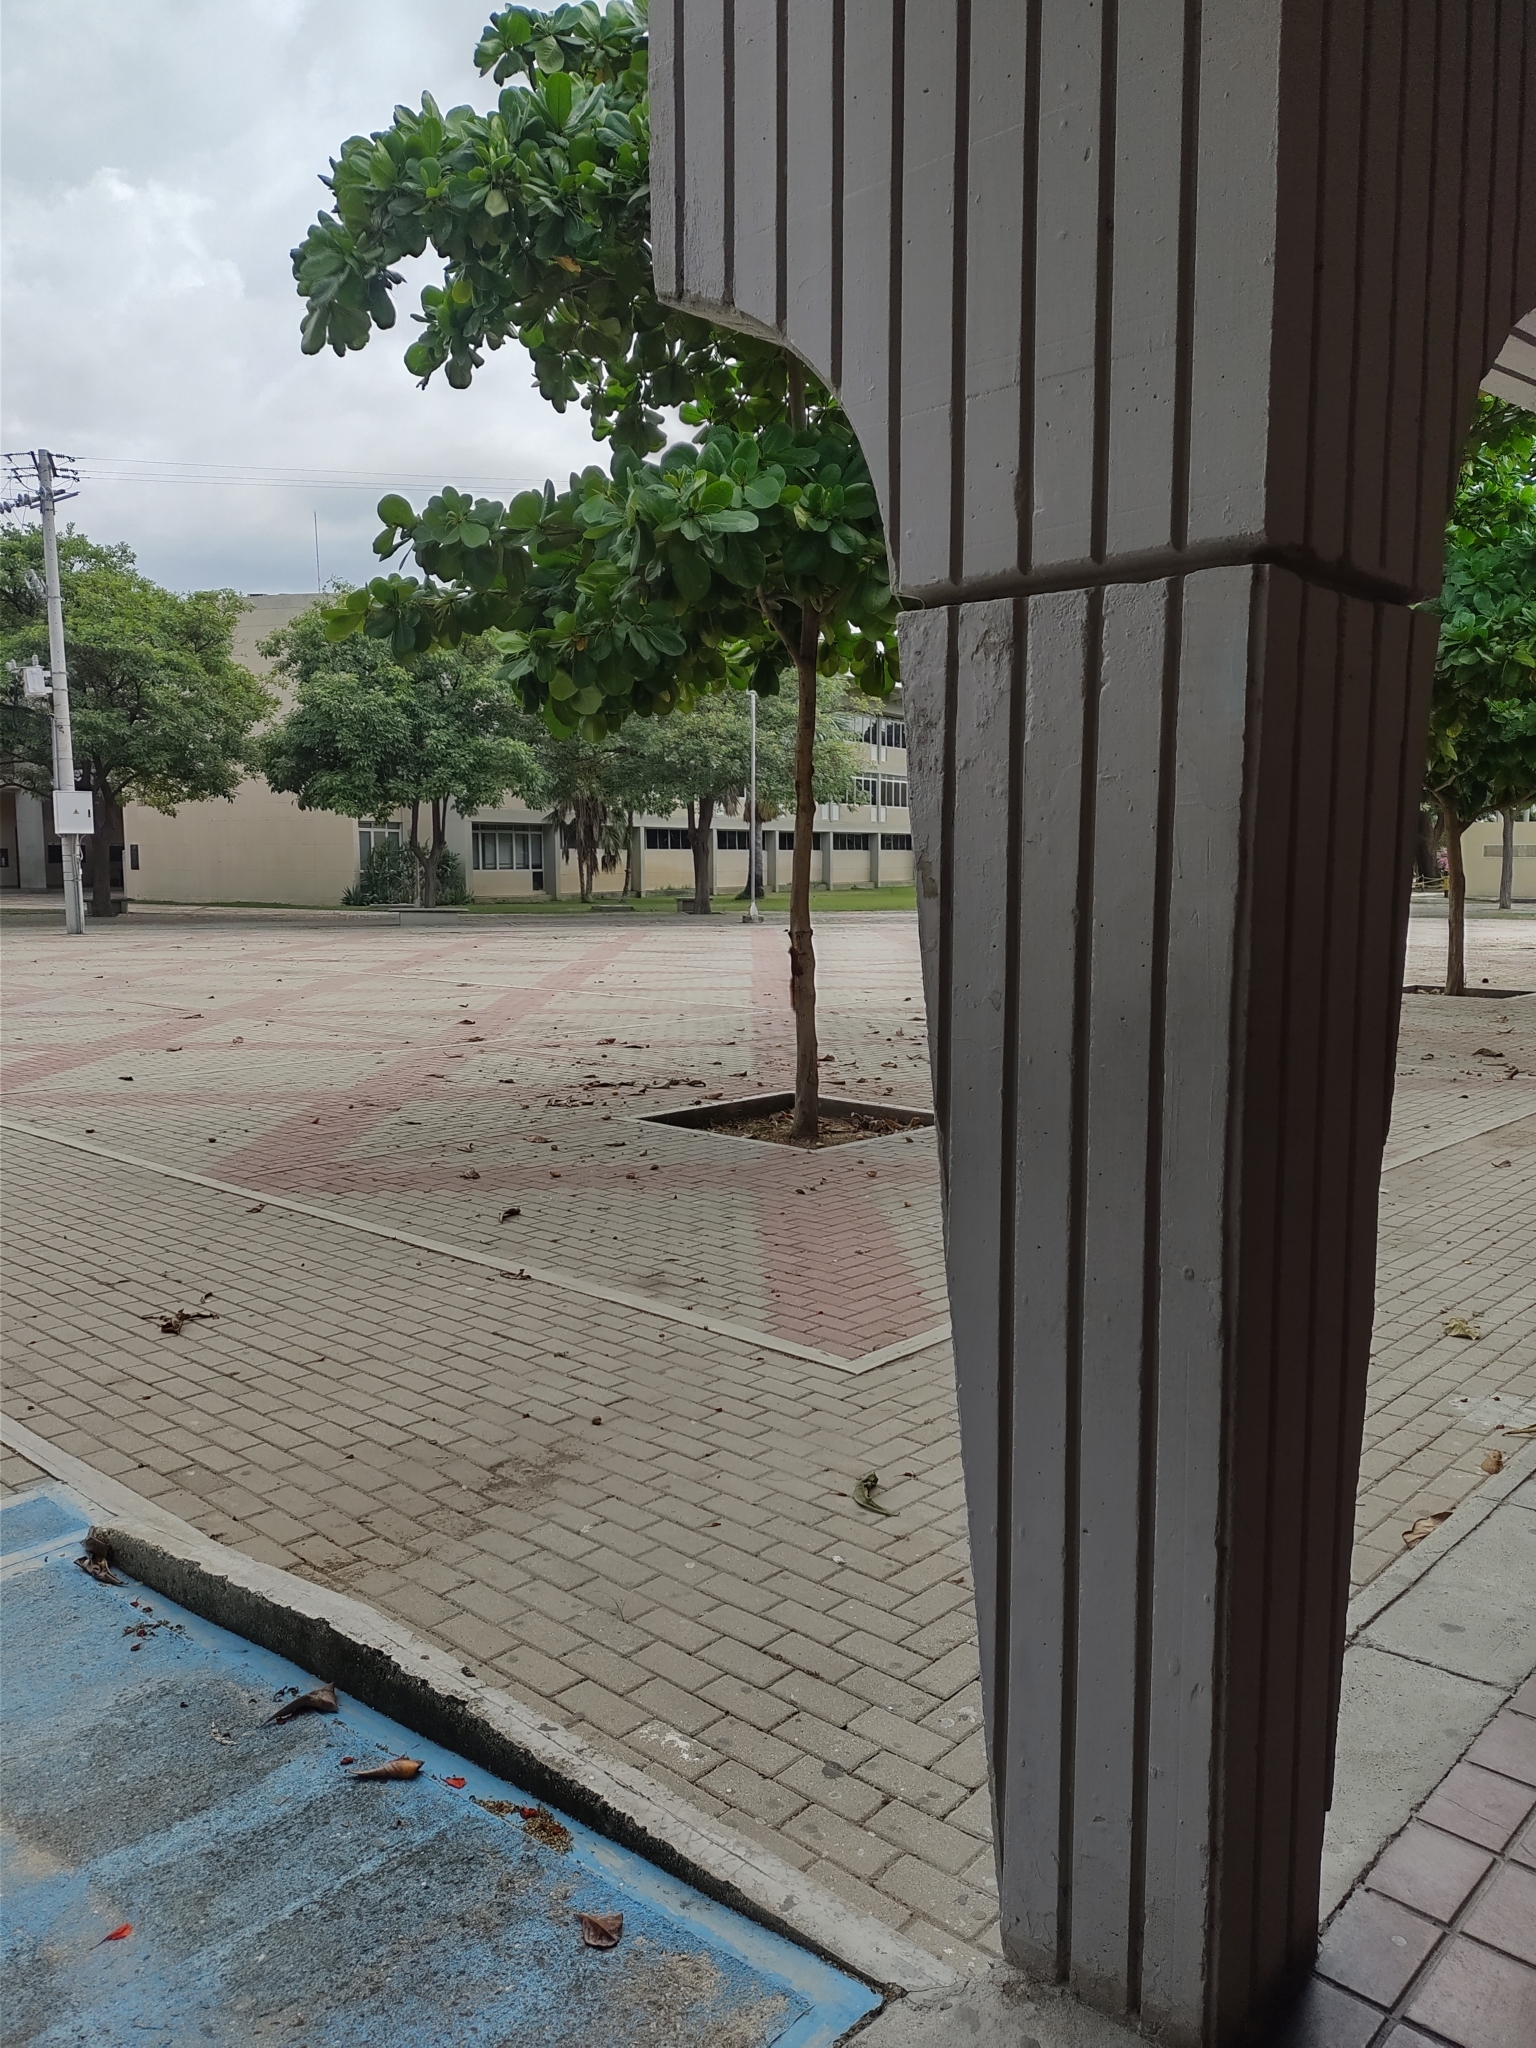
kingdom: Animalia
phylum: Chordata
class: Mammalia
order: Rodentia
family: Sciuridae
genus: Sciurus
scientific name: Sciurus granatensis
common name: Red-tailed squirrel
